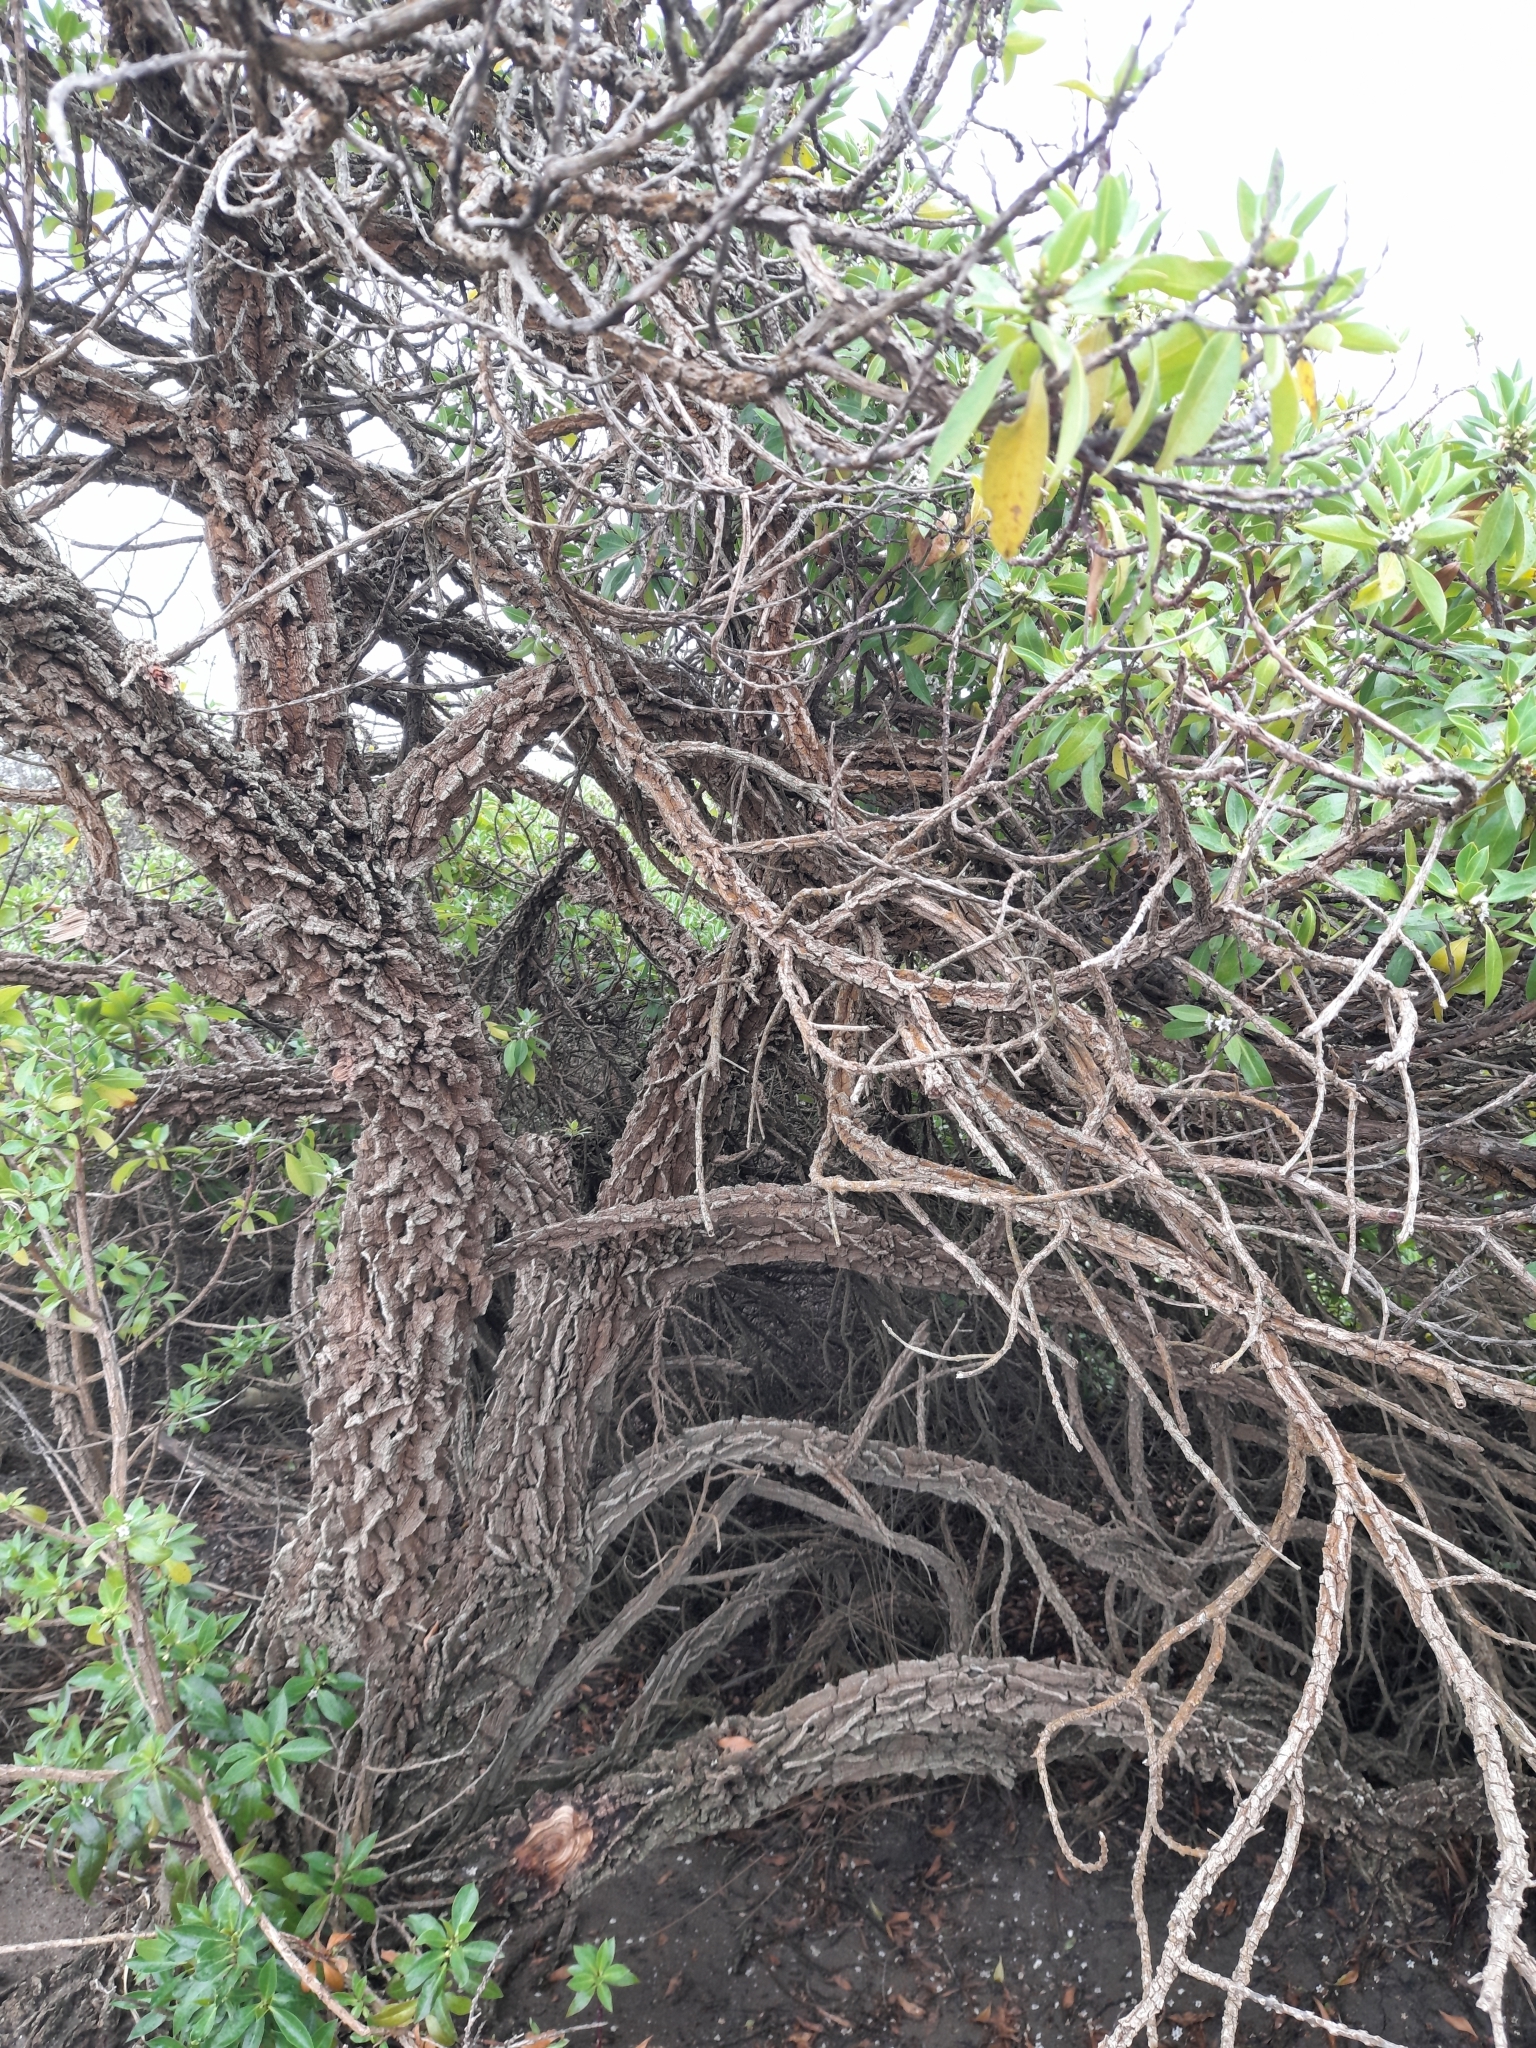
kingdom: Plantae
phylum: Tracheophyta
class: Magnoliopsida
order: Lamiales
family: Scrophulariaceae
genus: Myoporum
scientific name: Myoporum laetum
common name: Ngaio tree
